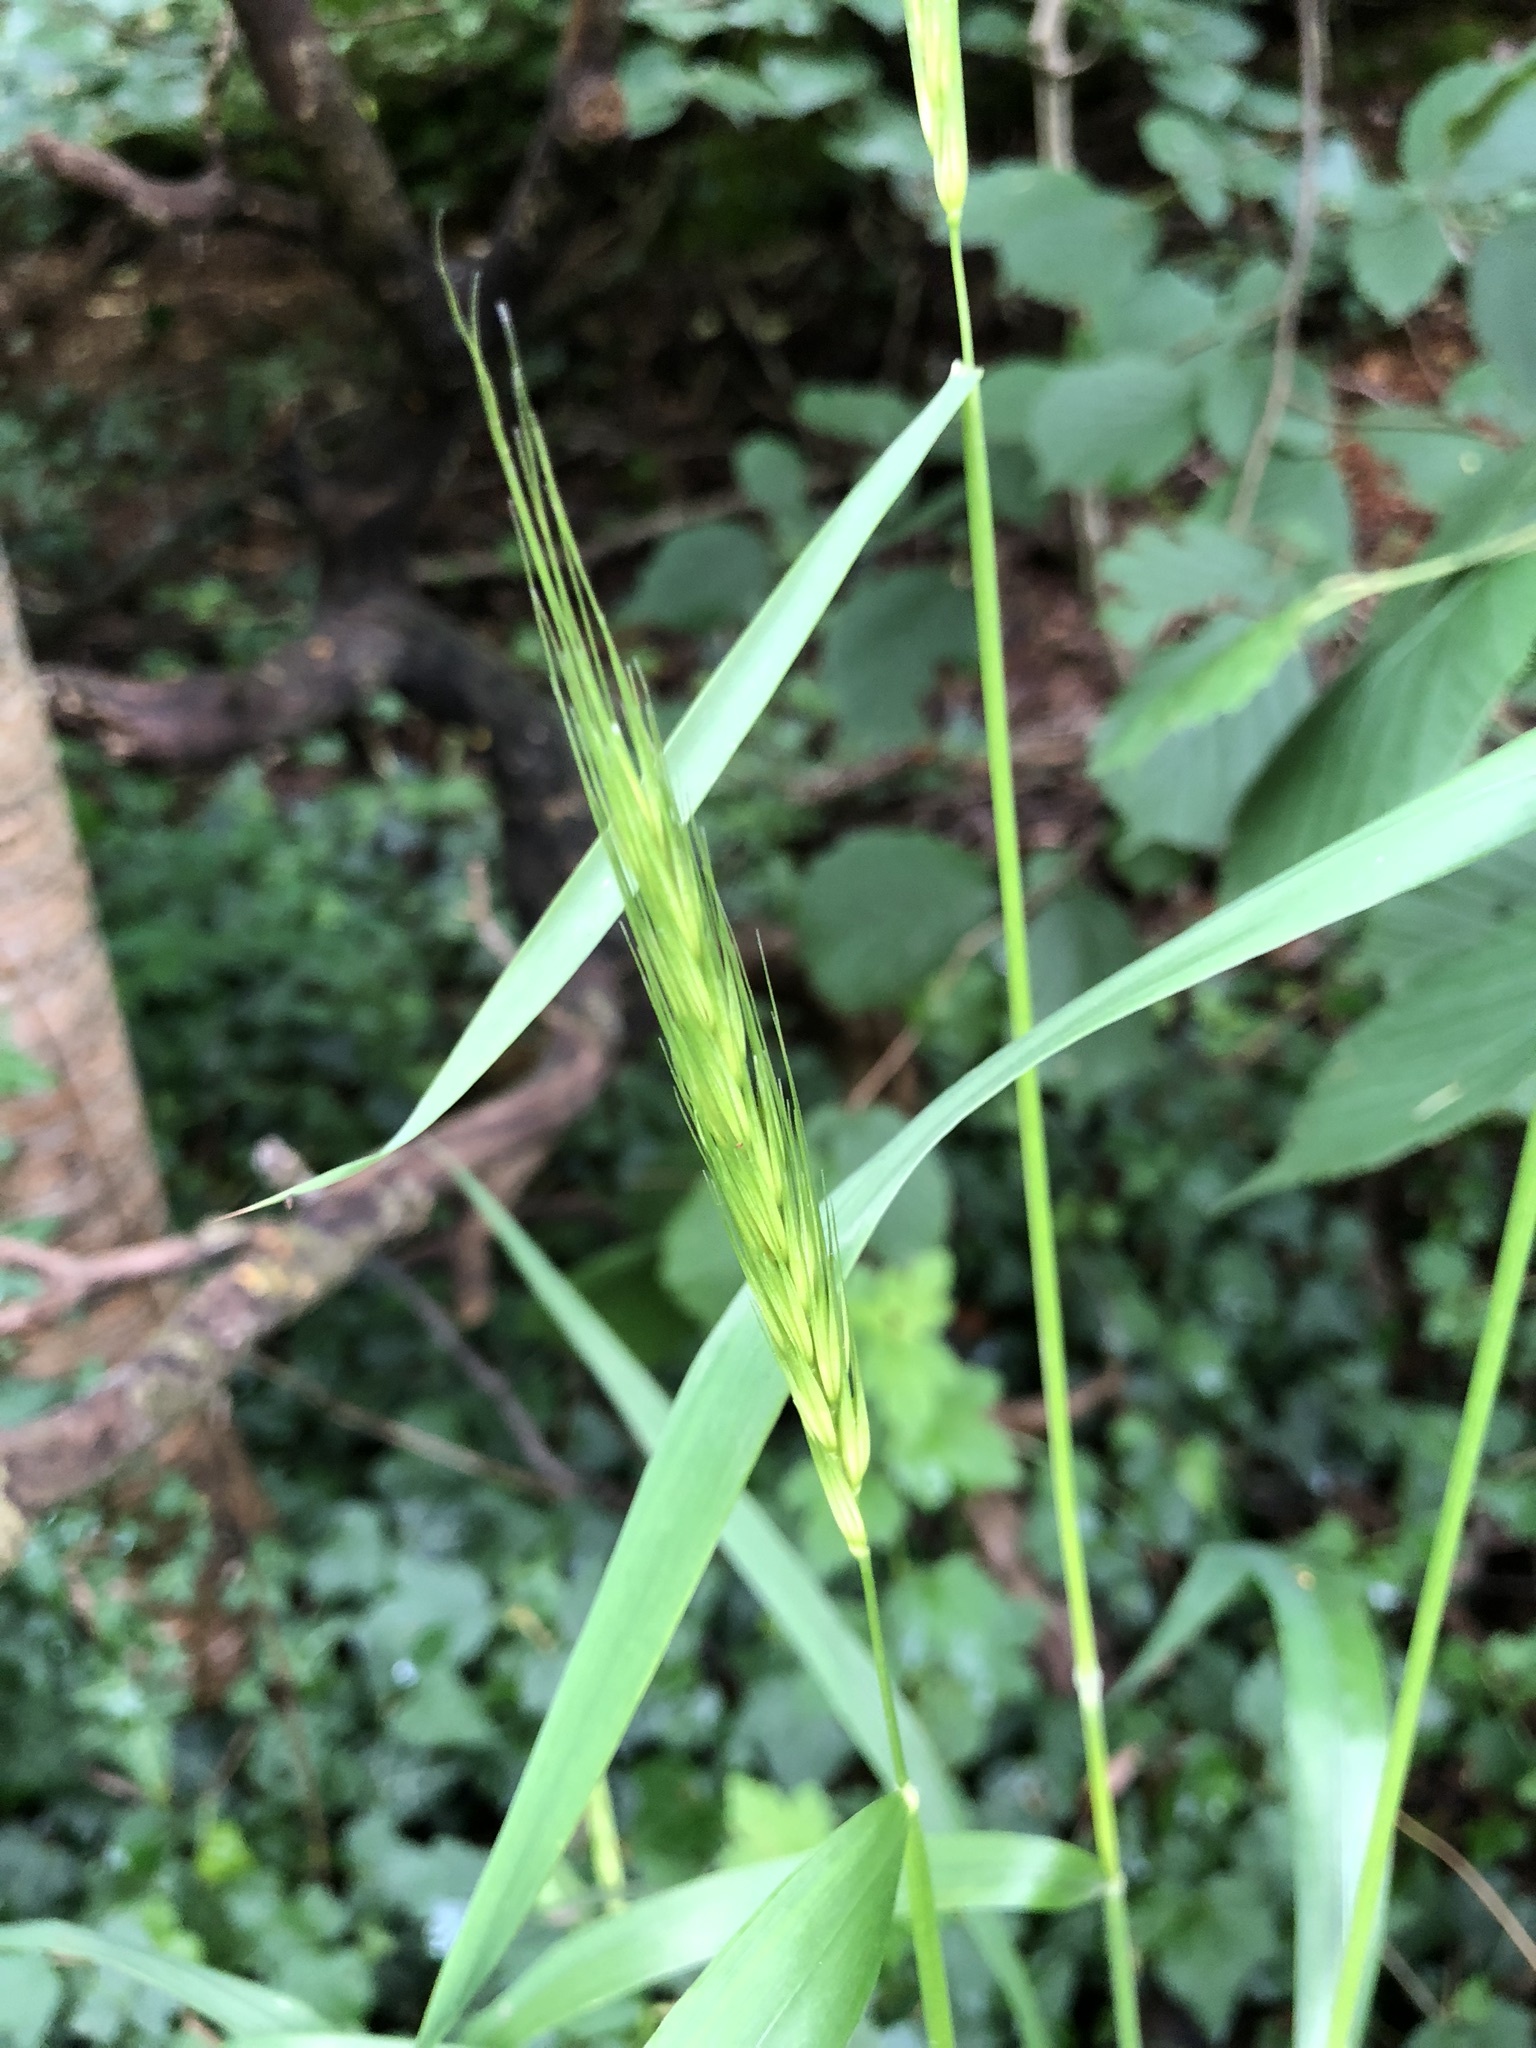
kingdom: Plantae
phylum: Tracheophyta
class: Liliopsida
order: Poales
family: Poaceae
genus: Hordelymus
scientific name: Hordelymus europaeus
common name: Wood-barley
